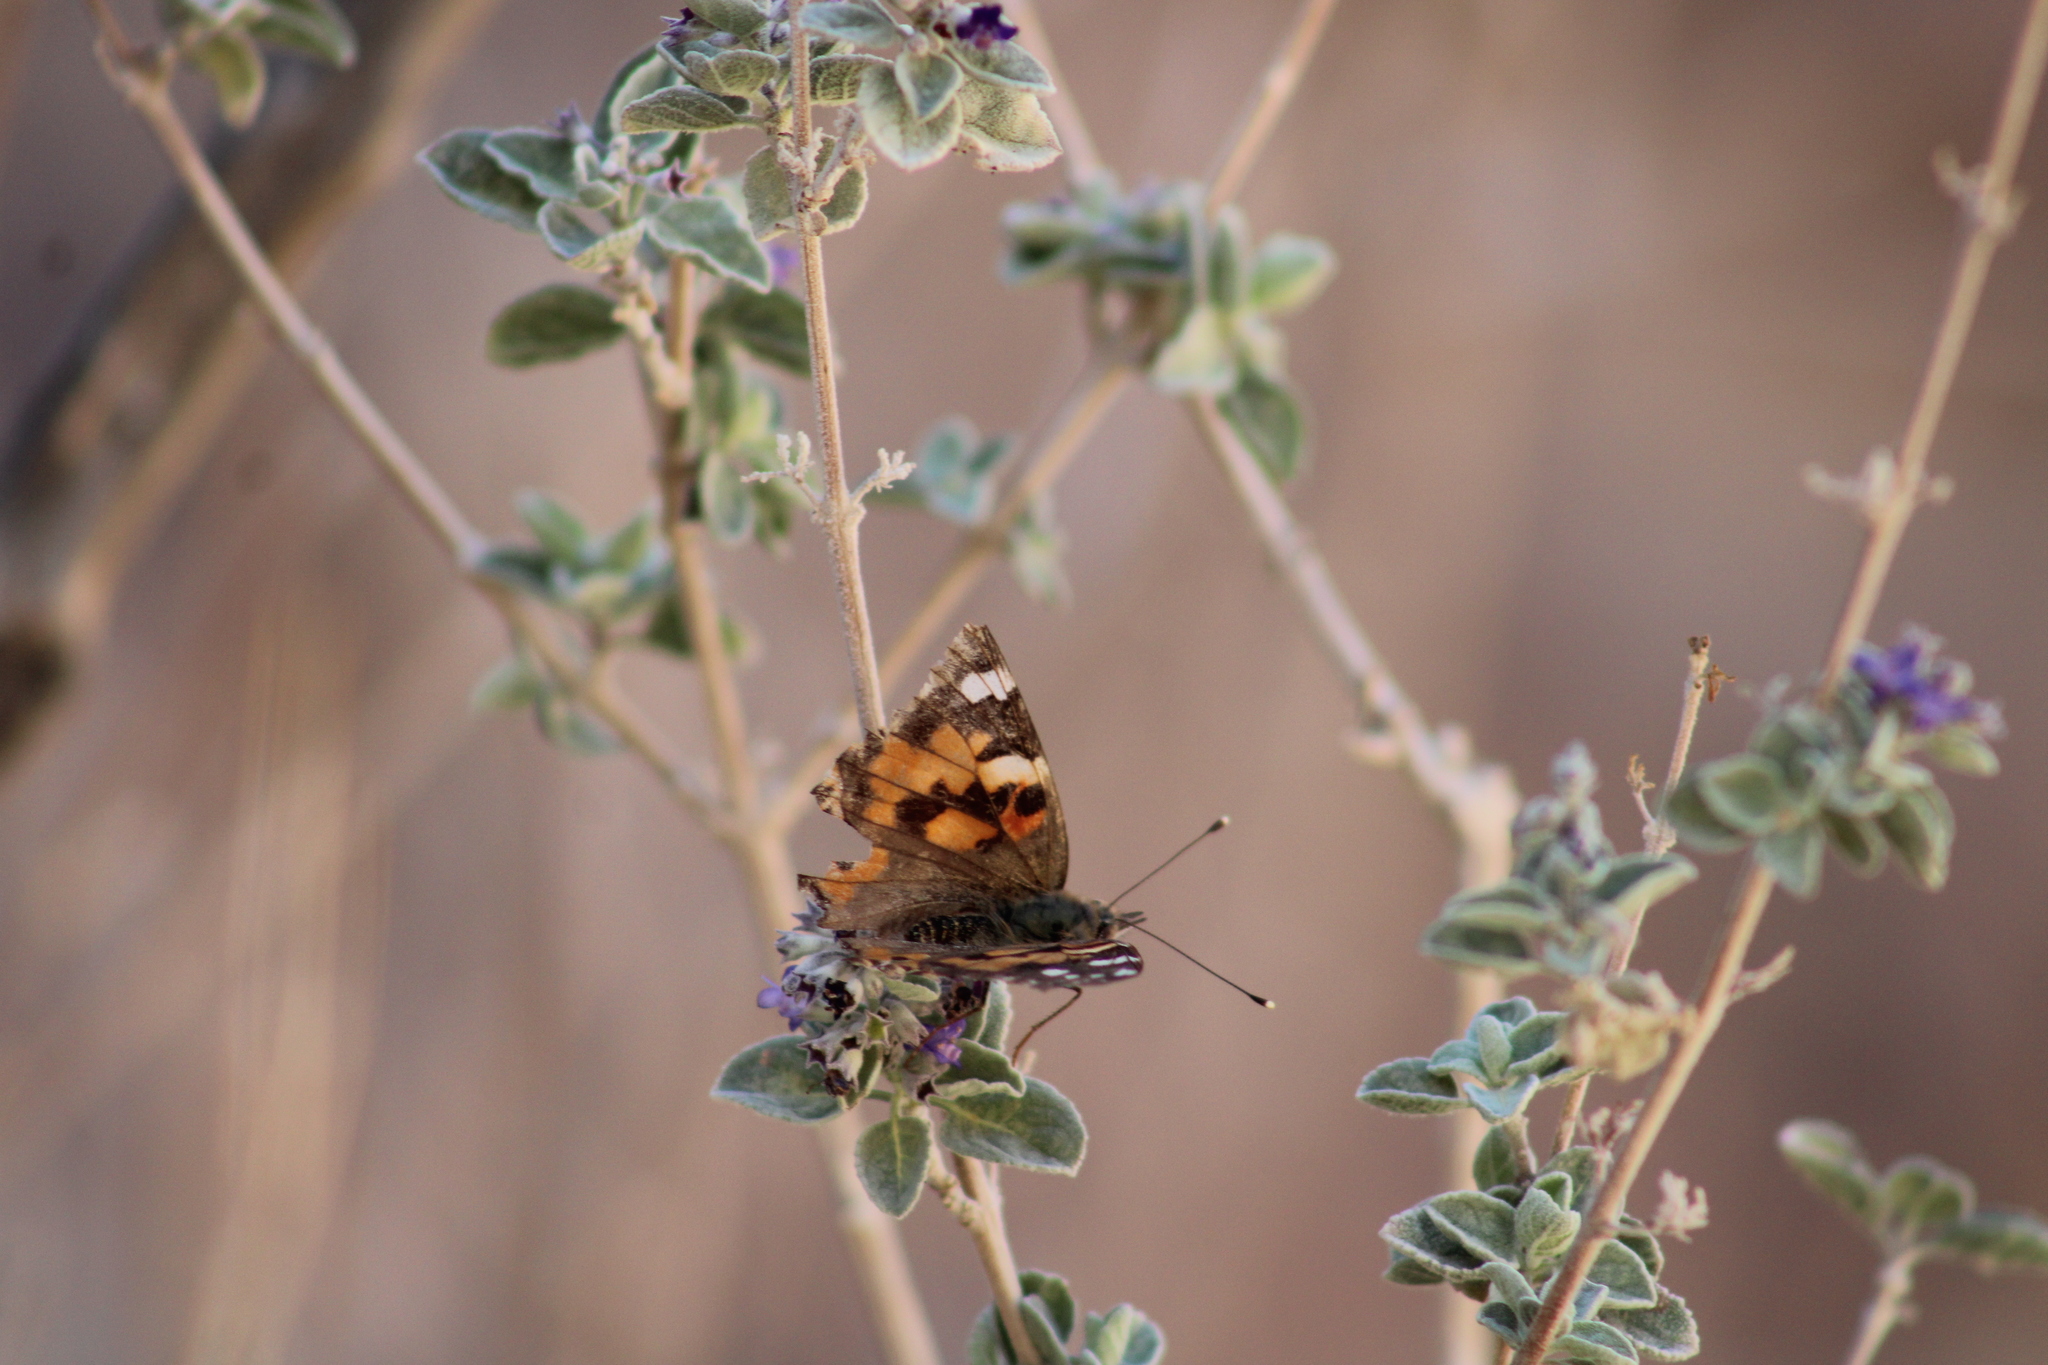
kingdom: Animalia
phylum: Arthropoda
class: Insecta
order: Lepidoptera
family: Nymphalidae
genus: Vanessa
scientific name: Vanessa cardui
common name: Painted lady
